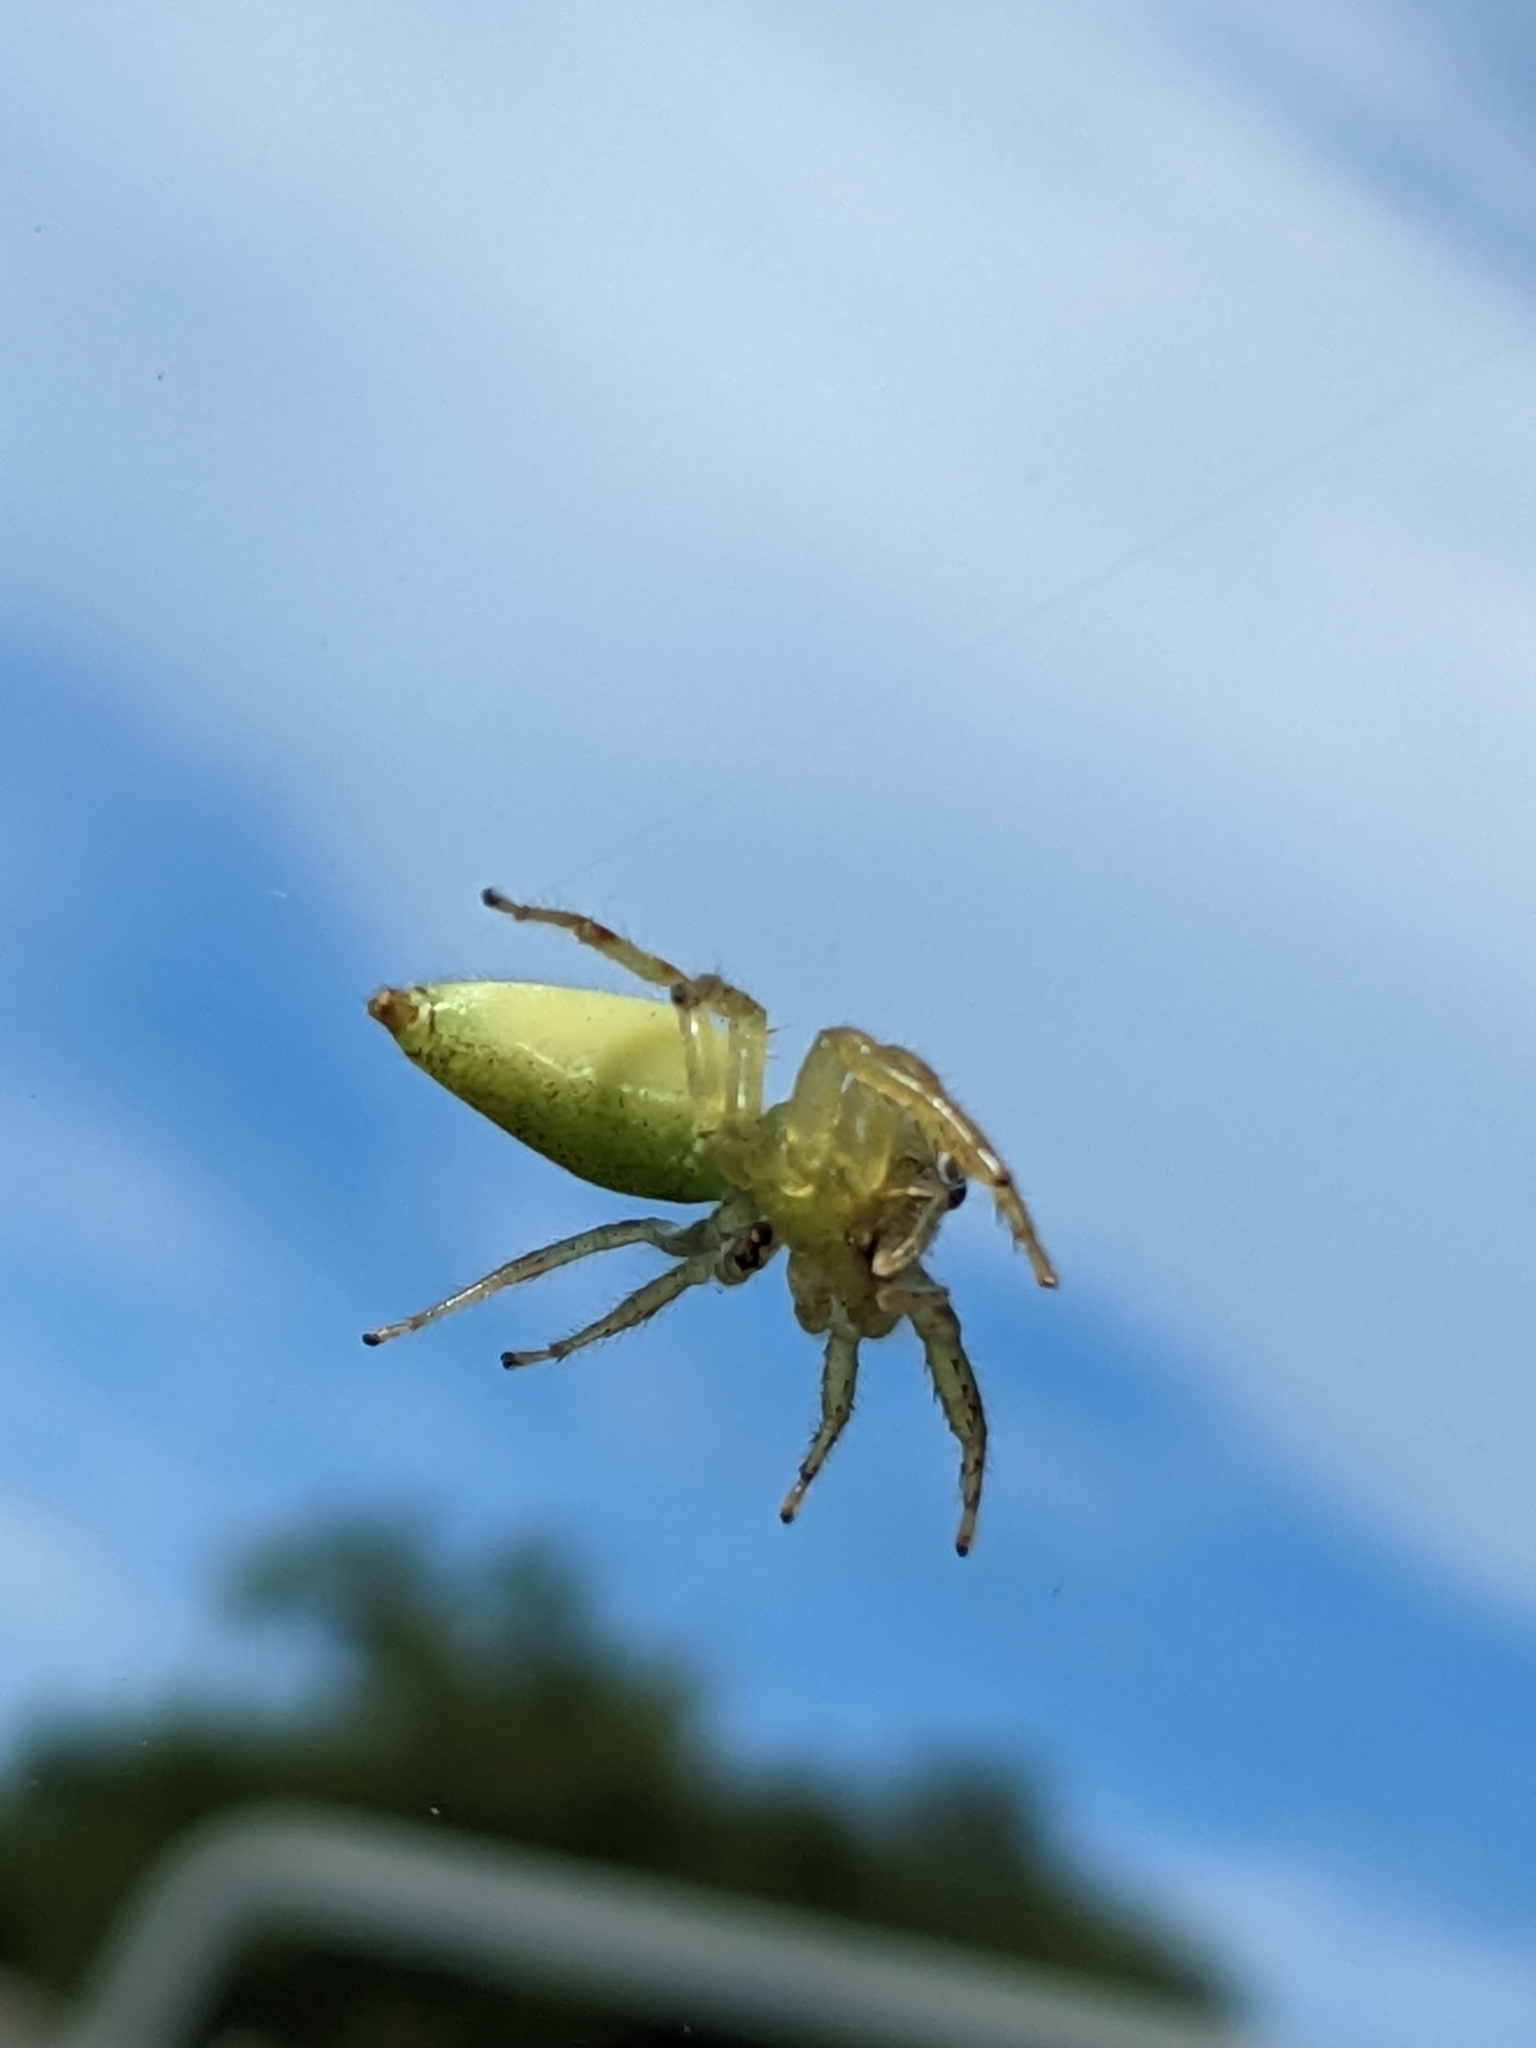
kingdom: Animalia
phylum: Arthropoda
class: Arachnida
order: Araneae
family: Salticidae
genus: Mopsus
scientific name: Mopsus mormon
